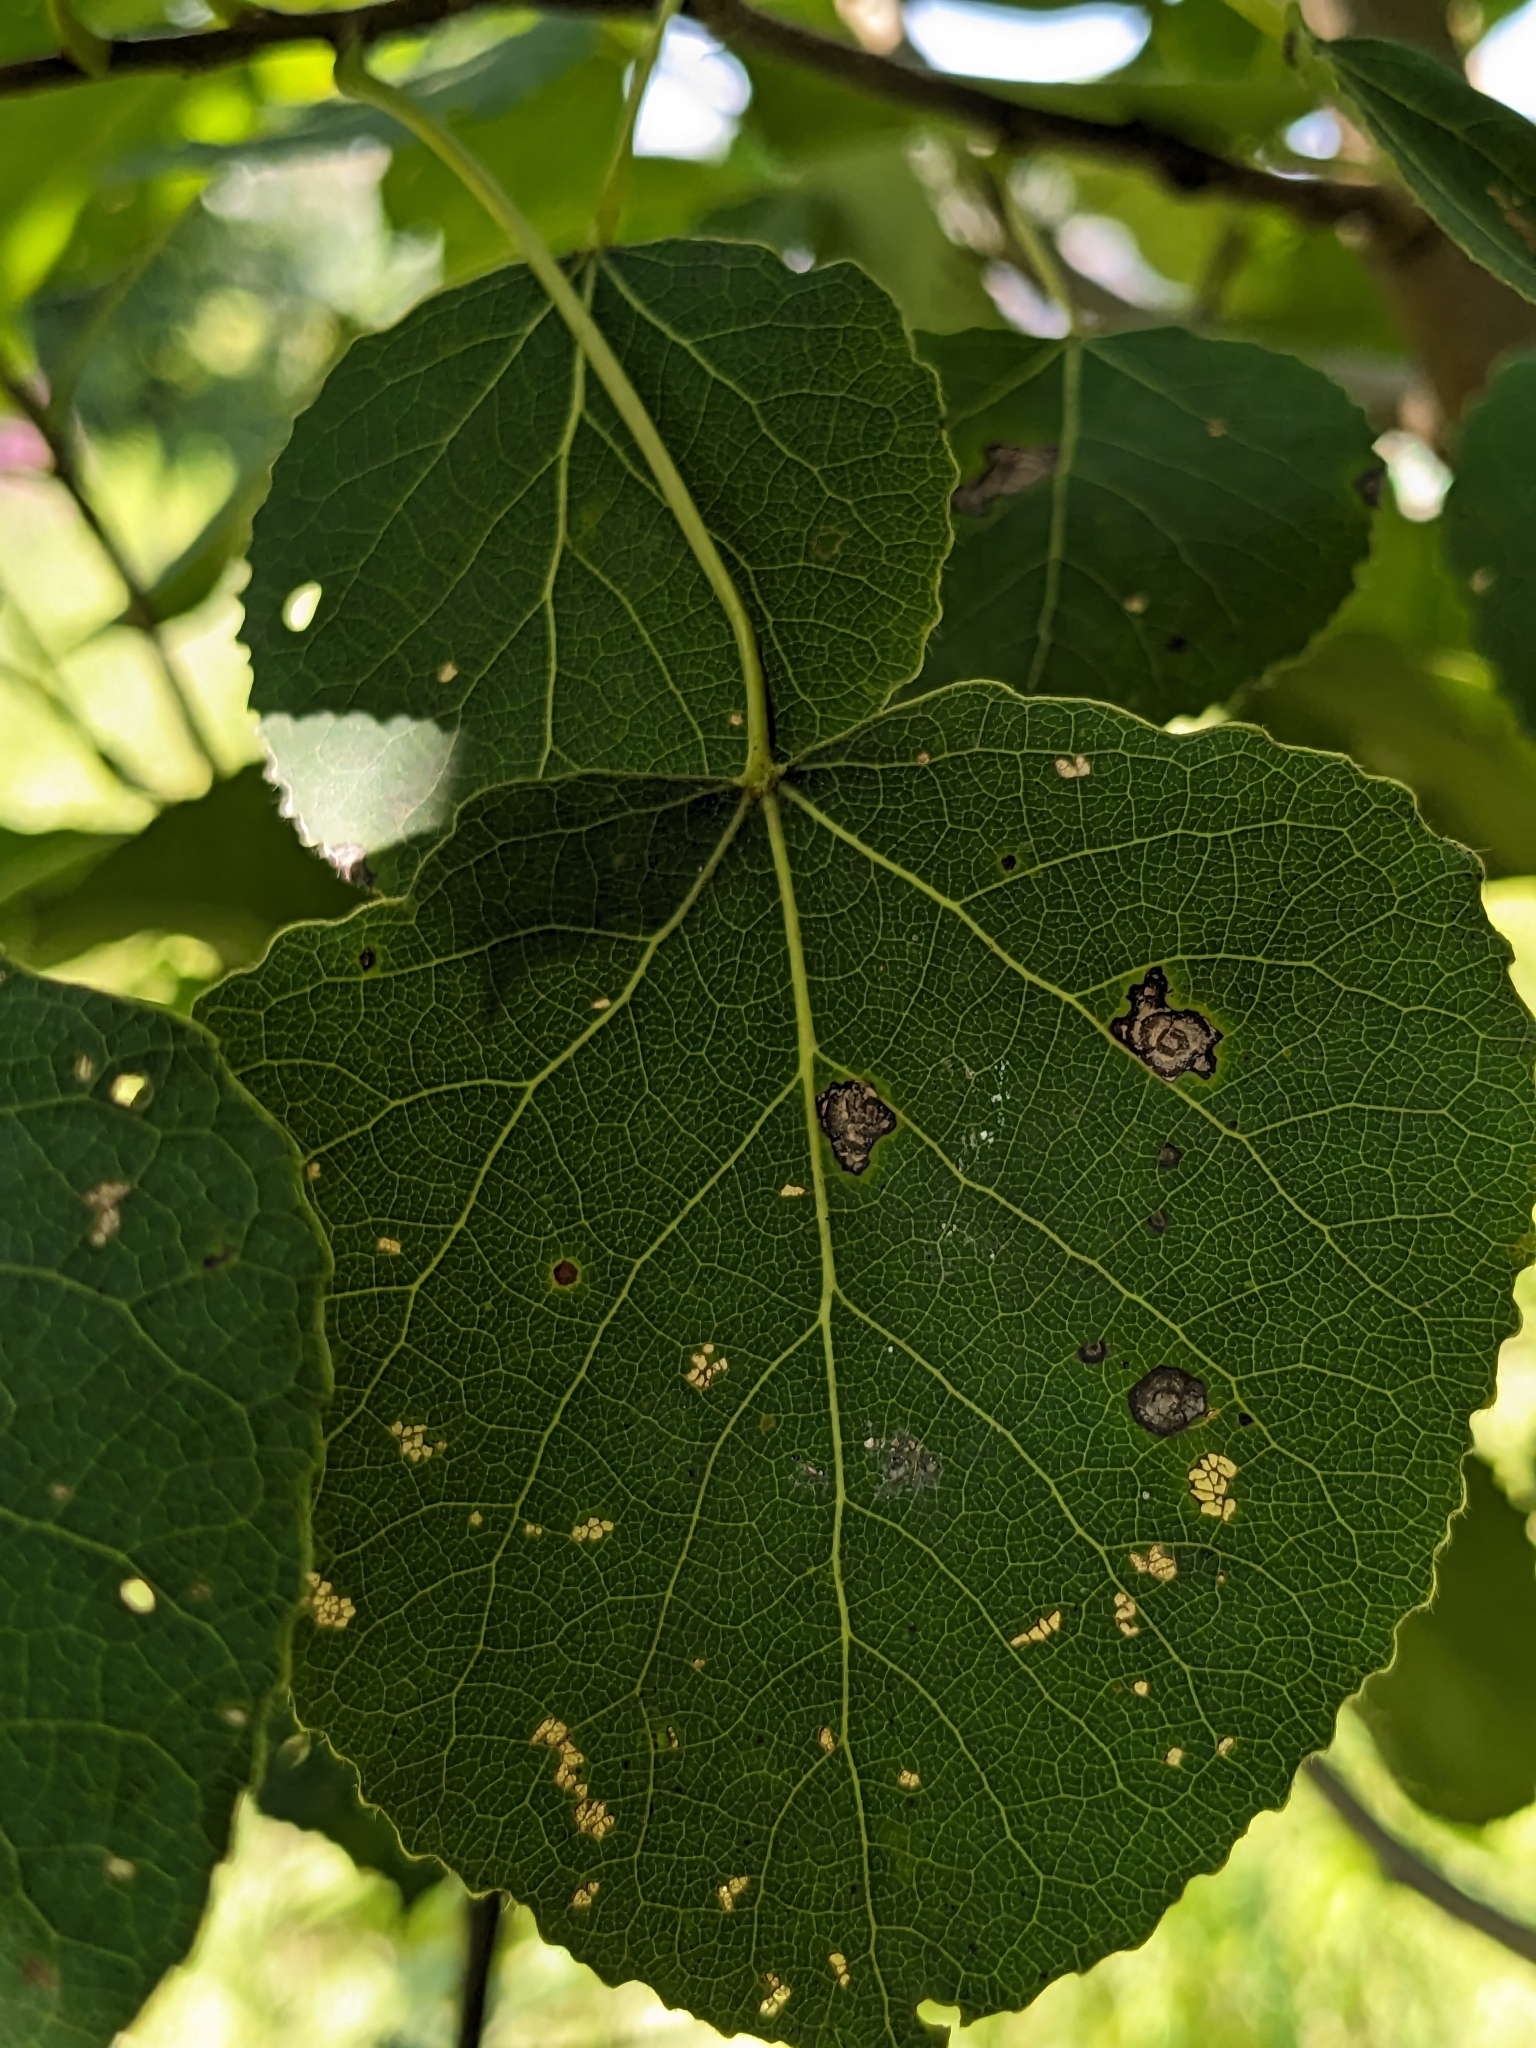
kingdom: Plantae
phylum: Tracheophyta
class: Magnoliopsida
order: Malpighiales
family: Salicaceae
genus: Populus
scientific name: Populus tremuloides
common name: Quaking aspen
